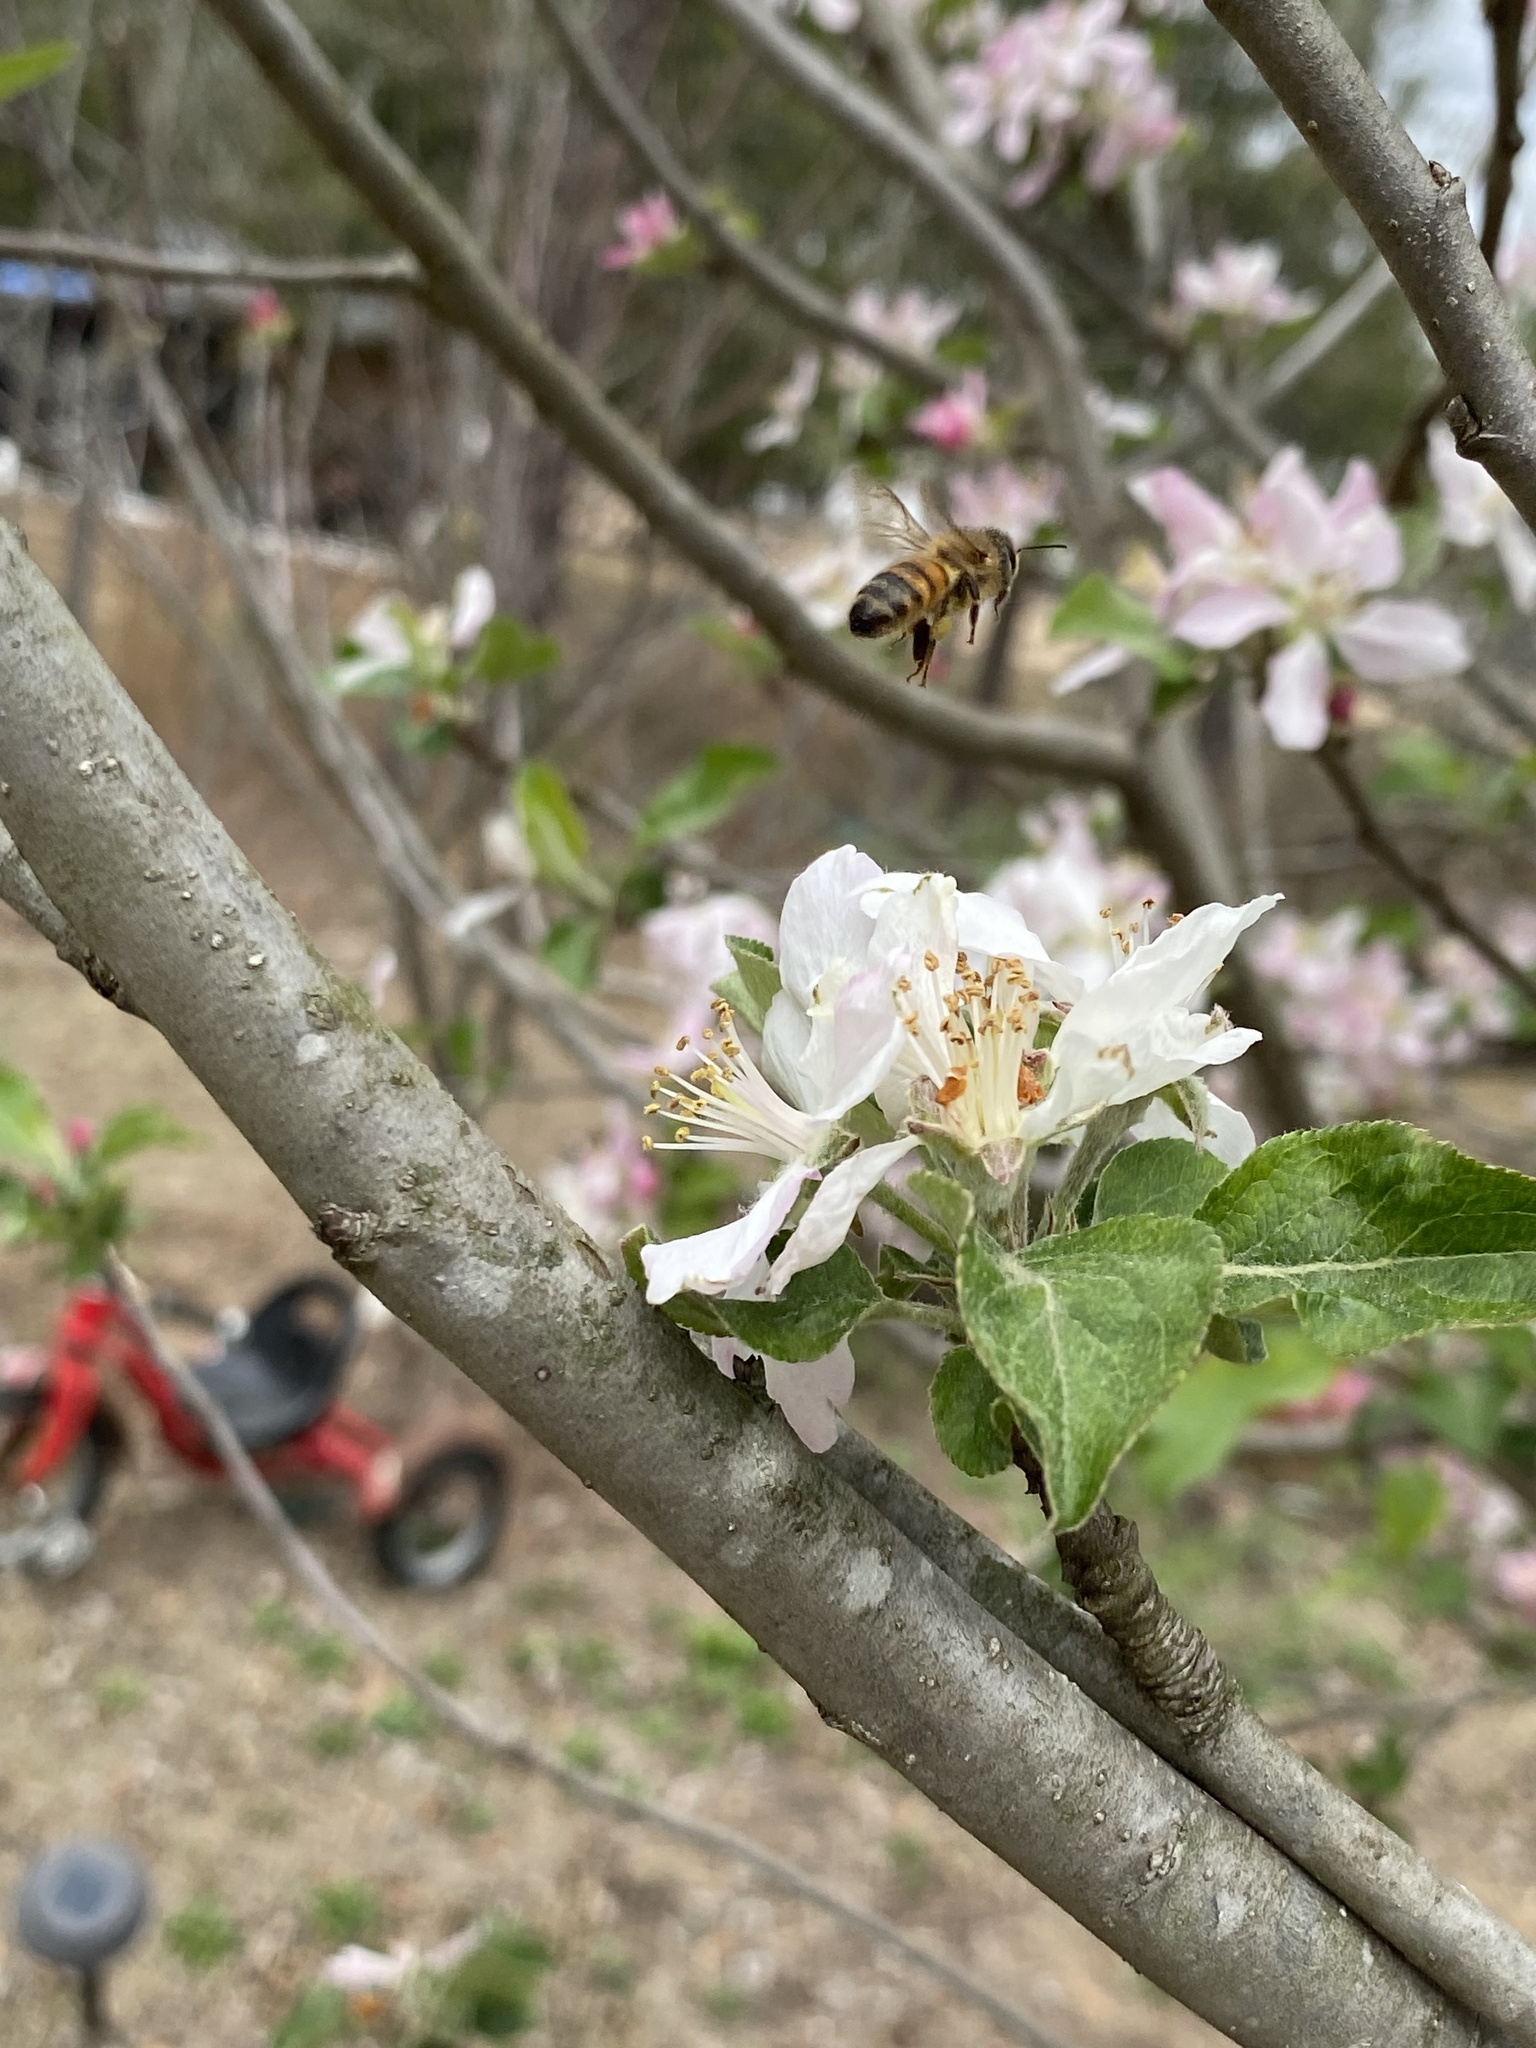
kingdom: Animalia
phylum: Arthropoda
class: Insecta
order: Hymenoptera
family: Apidae
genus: Apis
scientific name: Apis mellifera
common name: Honey bee
